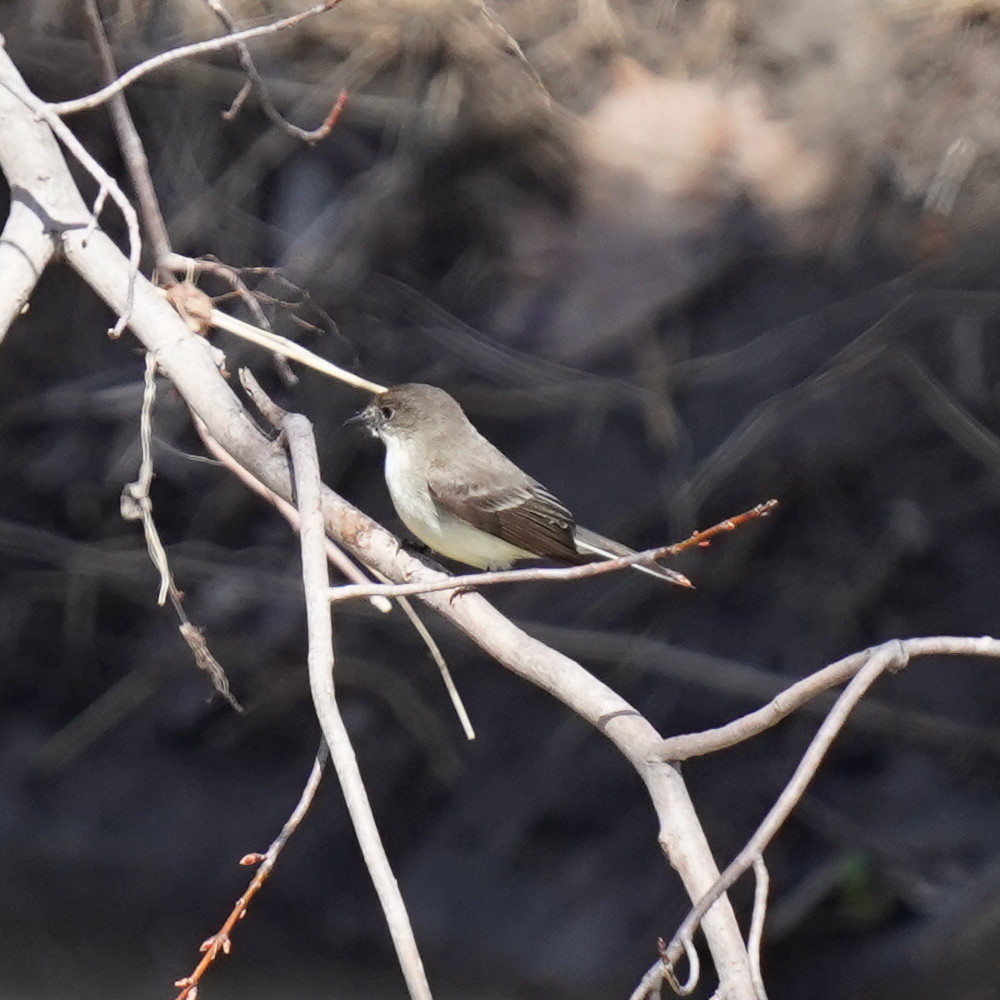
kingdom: Animalia
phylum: Chordata
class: Aves
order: Passeriformes
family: Tyrannidae
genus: Sayornis
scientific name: Sayornis phoebe
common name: Eastern phoebe
